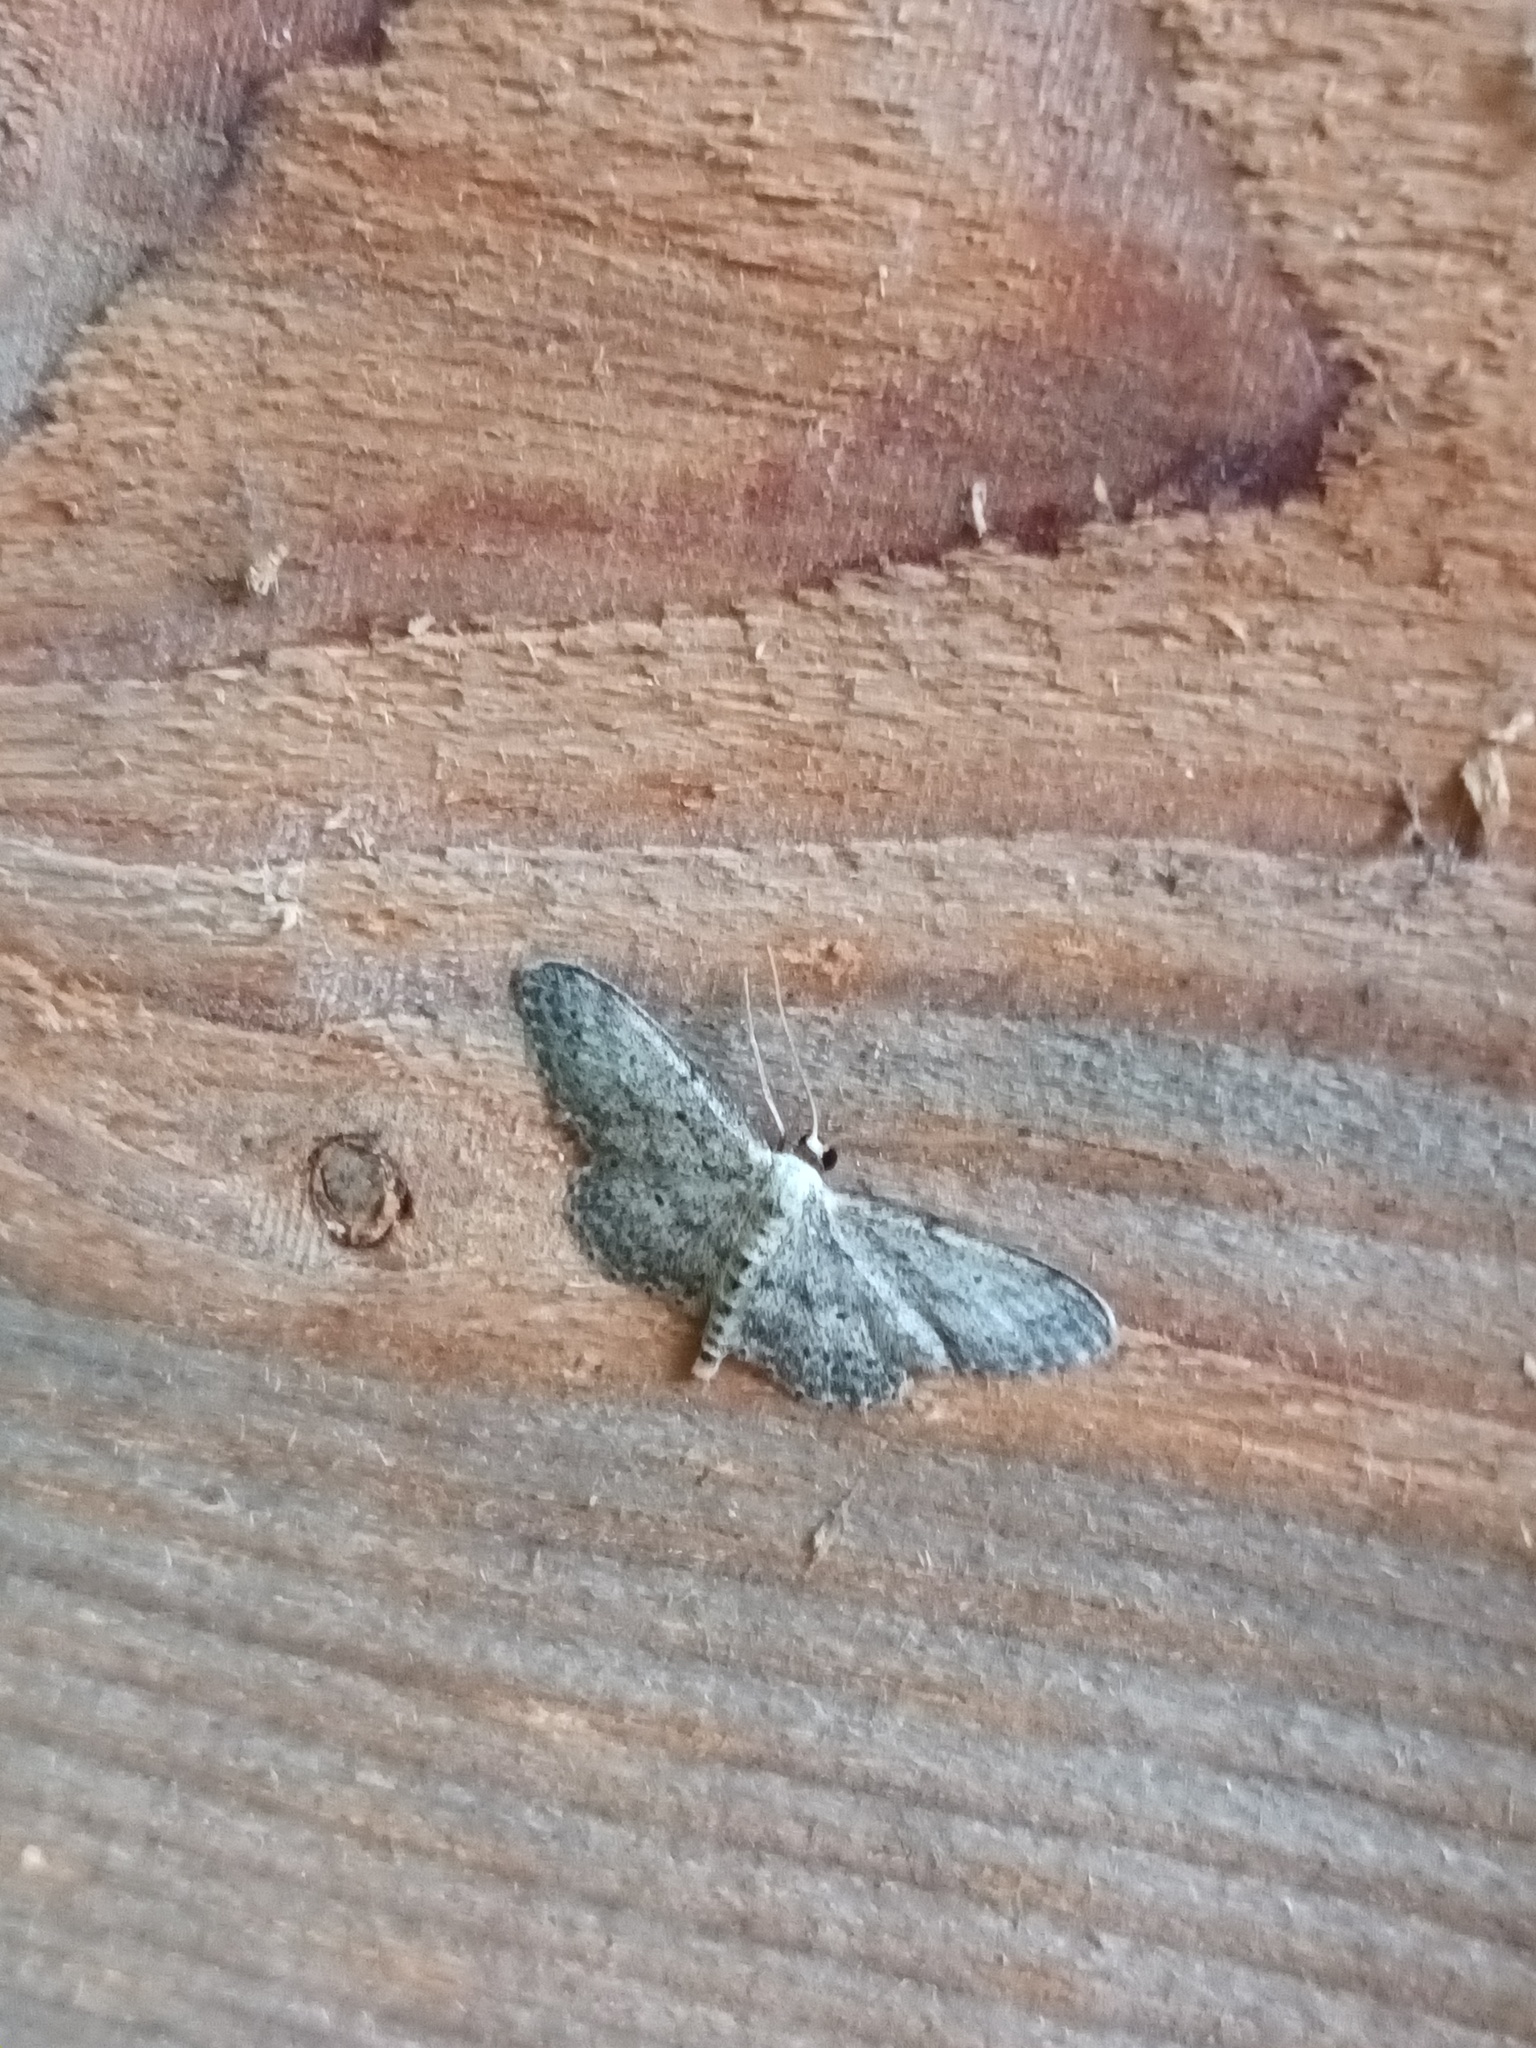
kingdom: Animalia
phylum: Arthropoda
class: Insecta
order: Lepidoptera
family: Geometridae
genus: Idaea
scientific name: Idaea seriata
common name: Small dusty wave
